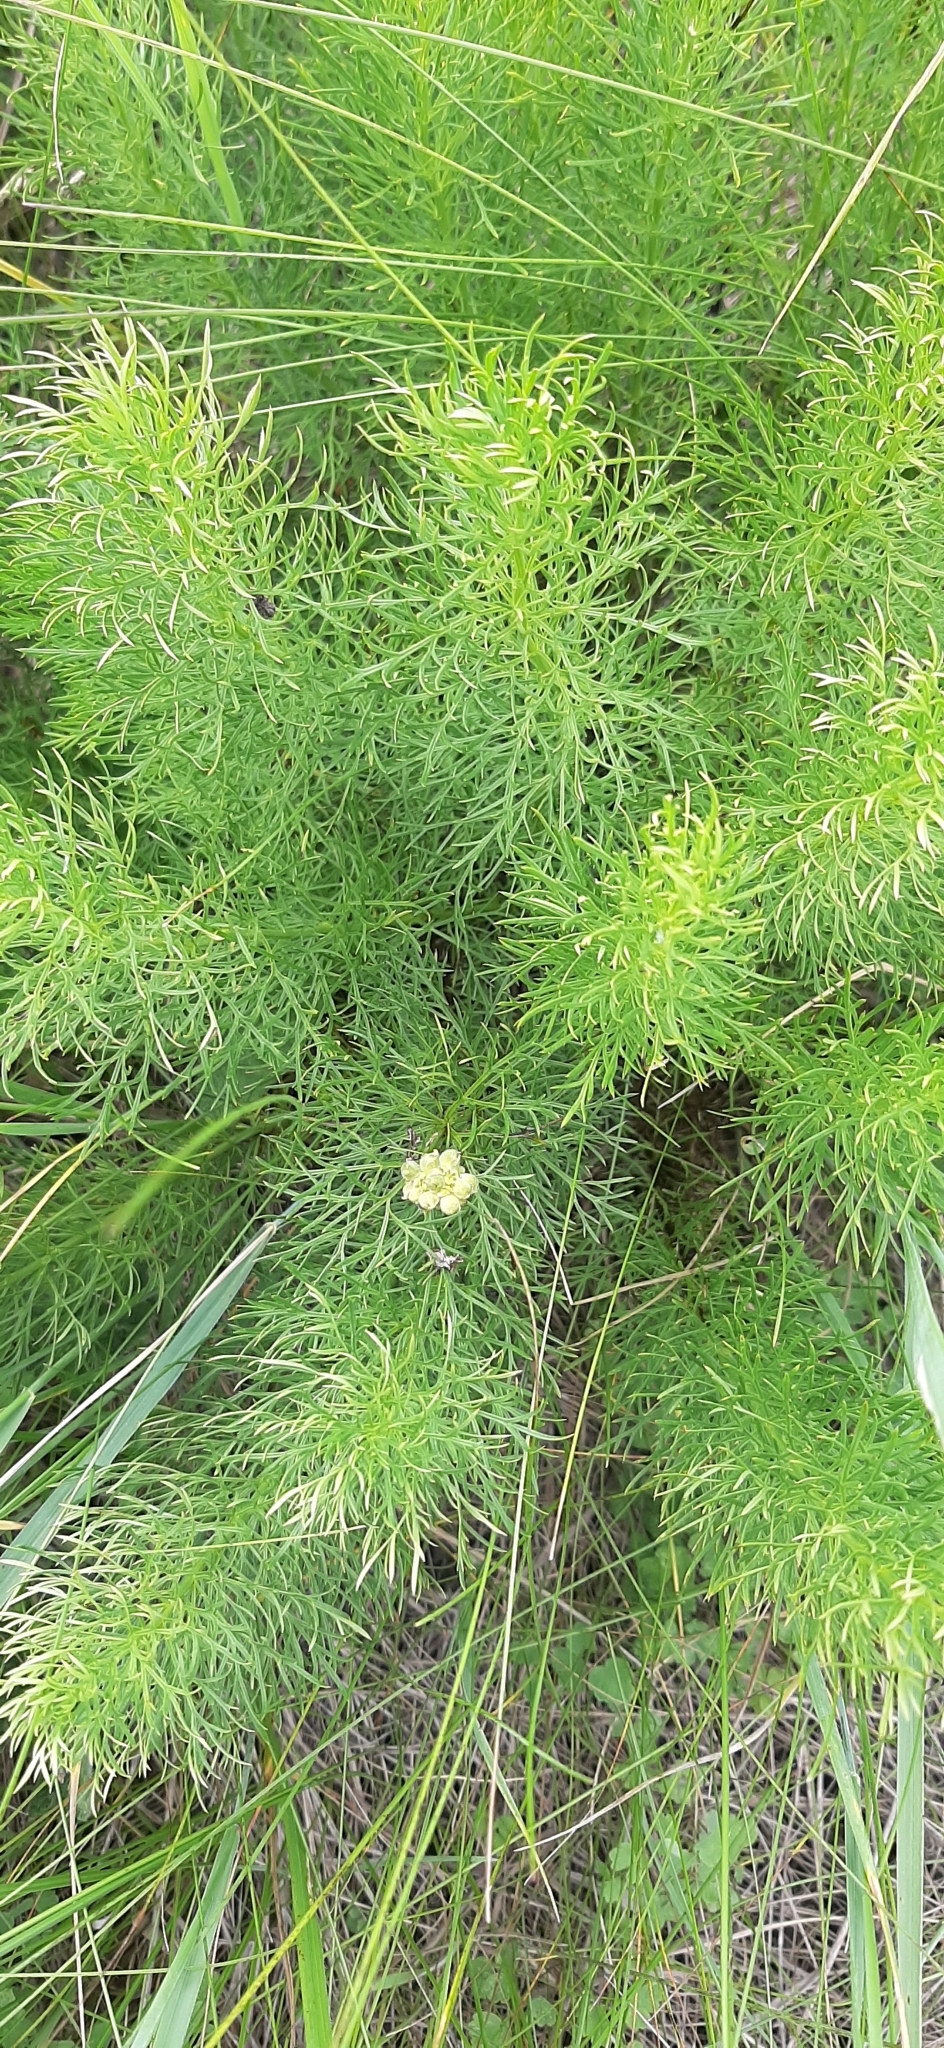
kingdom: Plantae
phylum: Tracheophyta
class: Magnoliopsida
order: Ranunculales
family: Ranunculaceae
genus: Adonis
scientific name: Adonis vernalis
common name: Yellow pheasants-eye
